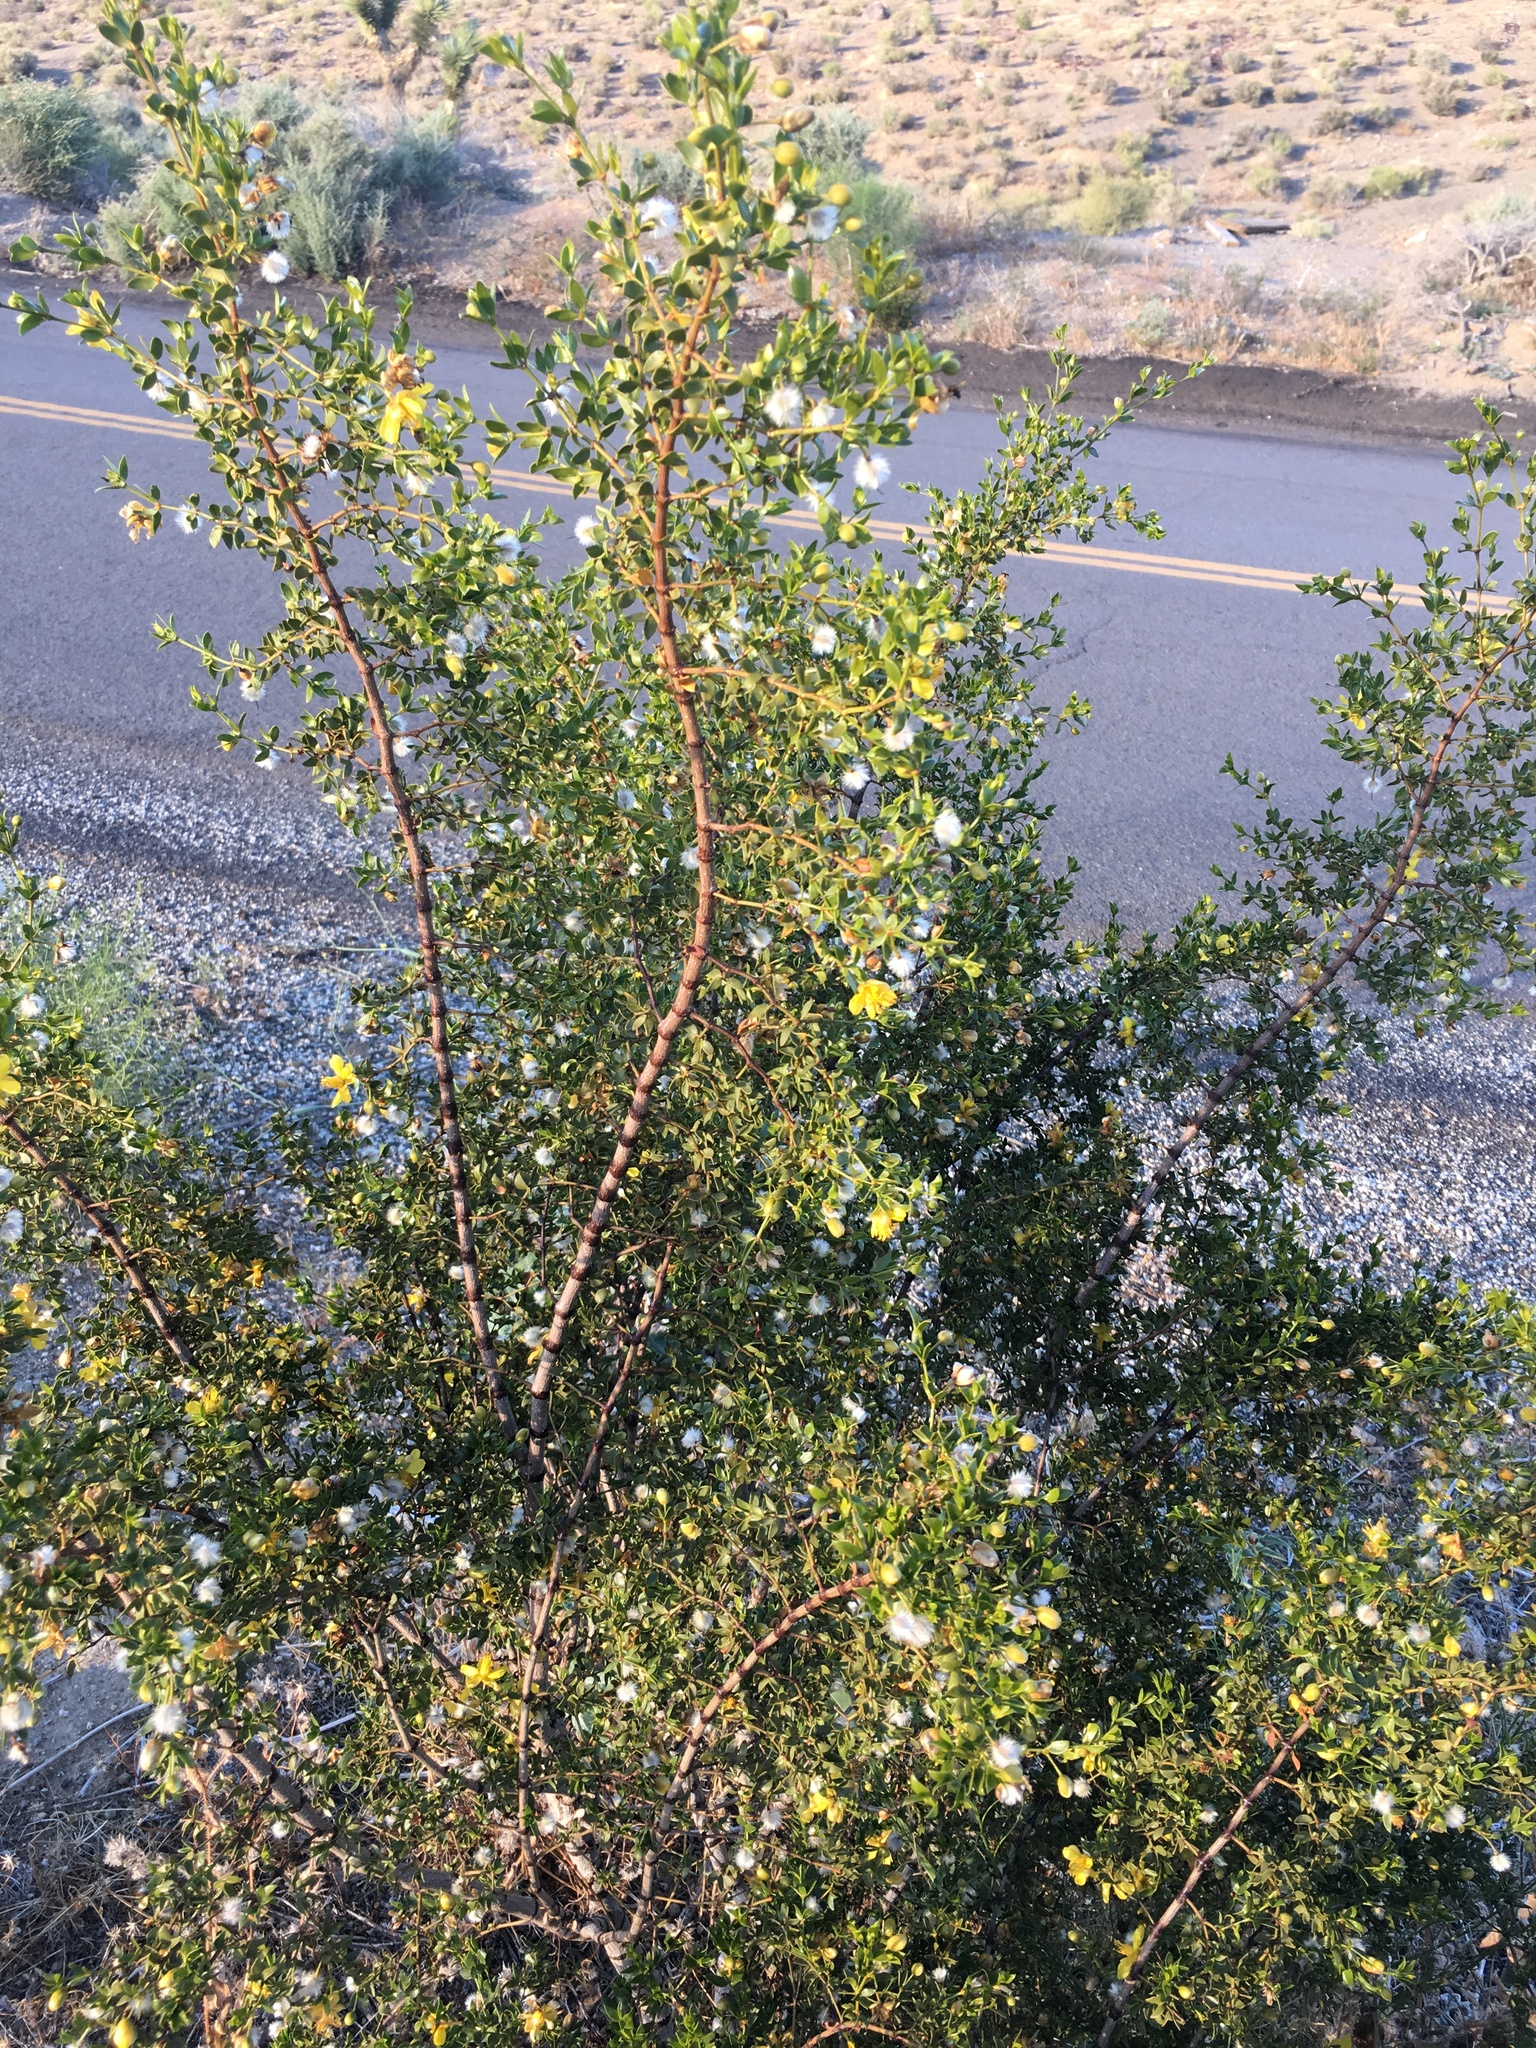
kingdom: Plantae
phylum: Tracheophyta
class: Magnoliopsida
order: Zygophyllales
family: Zygophyllaceae
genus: Larrea
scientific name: Larrea tridentata
